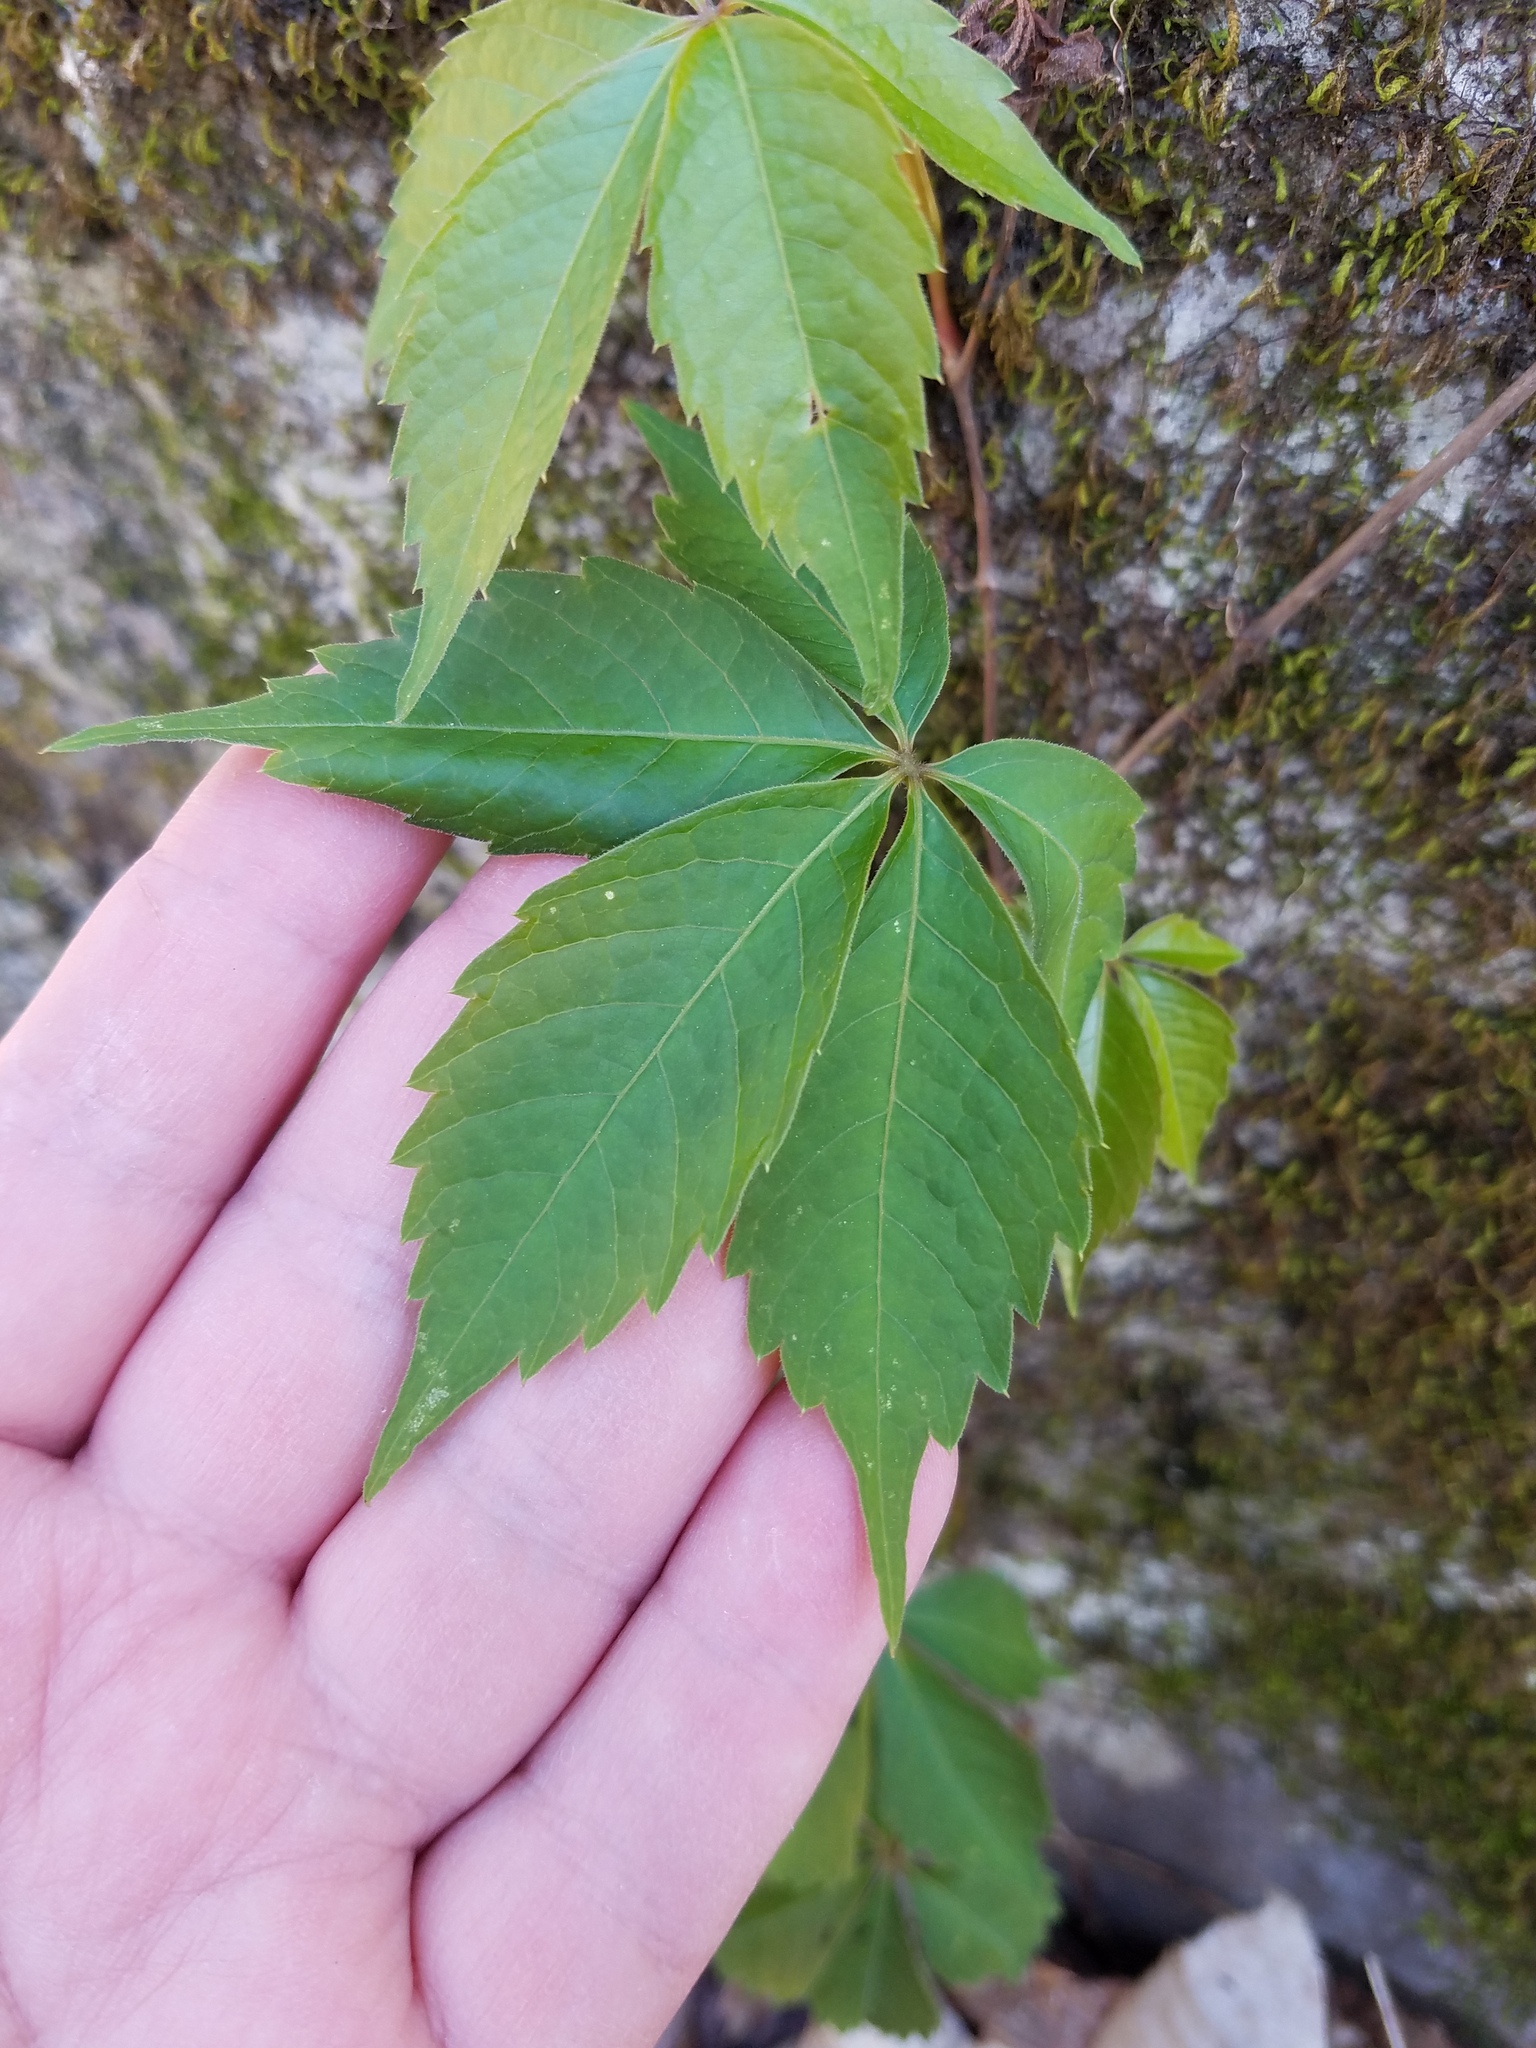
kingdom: Plantae
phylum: Tracheophyta
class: Magnoliopsida
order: Vitales
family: Vitaceae
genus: Parthenocissus
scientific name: Parthenocissus quinquefolia
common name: Virginia-creeper
